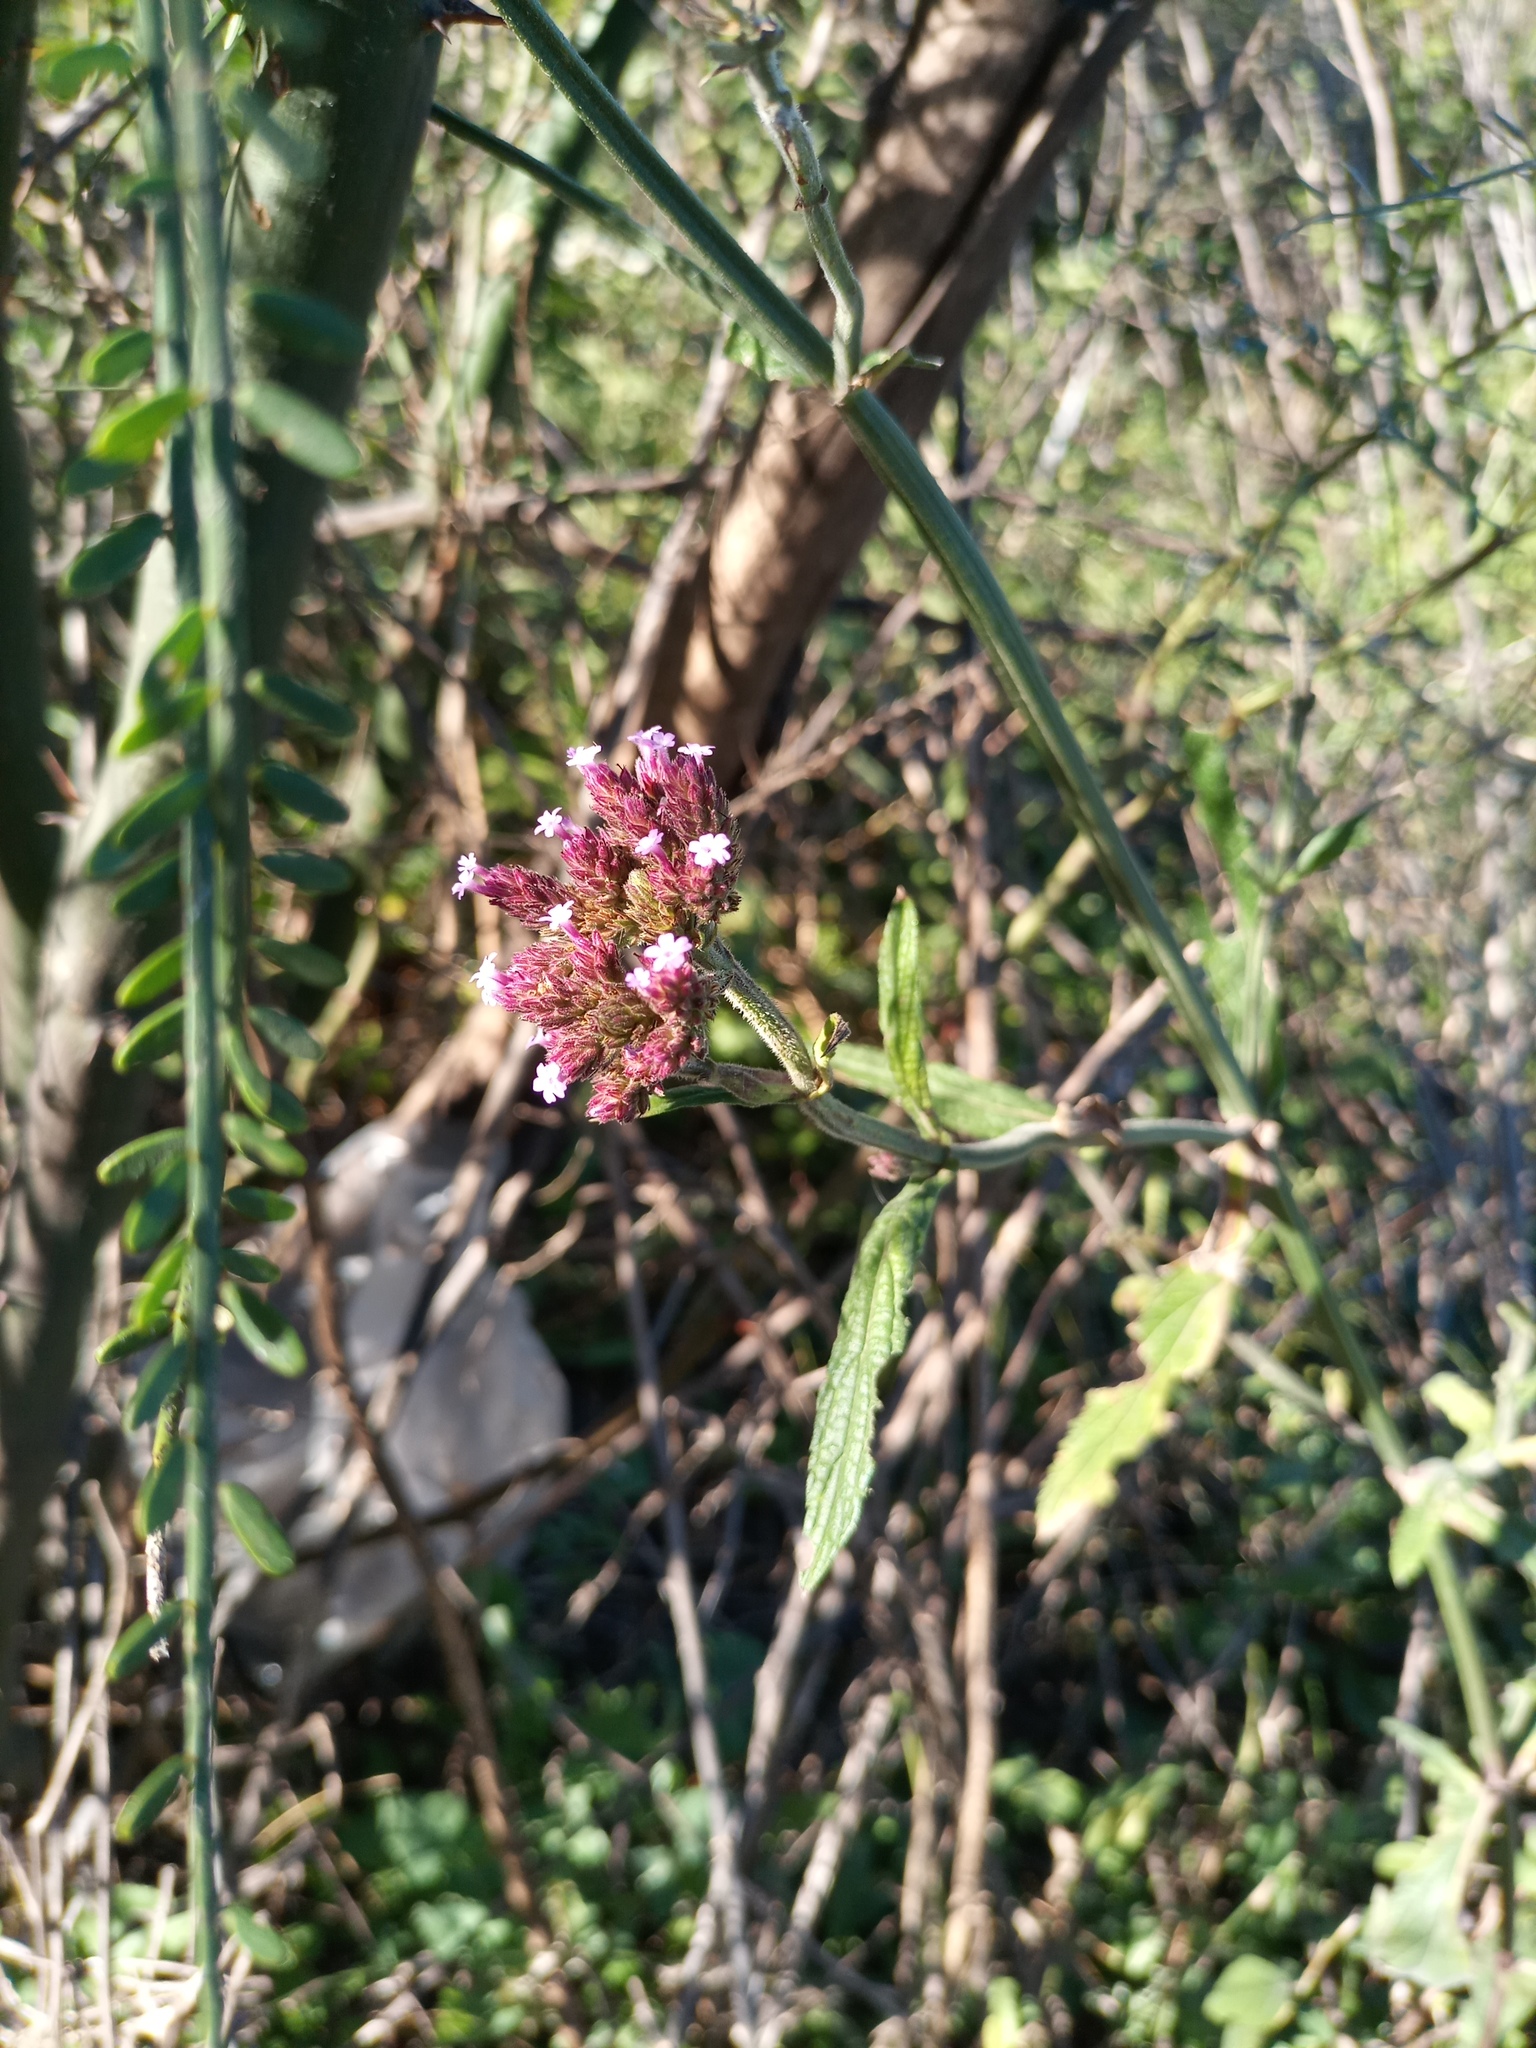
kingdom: Plantae
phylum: Tracheophyta
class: Magnoliopsida
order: Lamiales
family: Verbenaceae
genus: Verbena
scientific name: Verbena bonariensis
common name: Purpletop vervain
